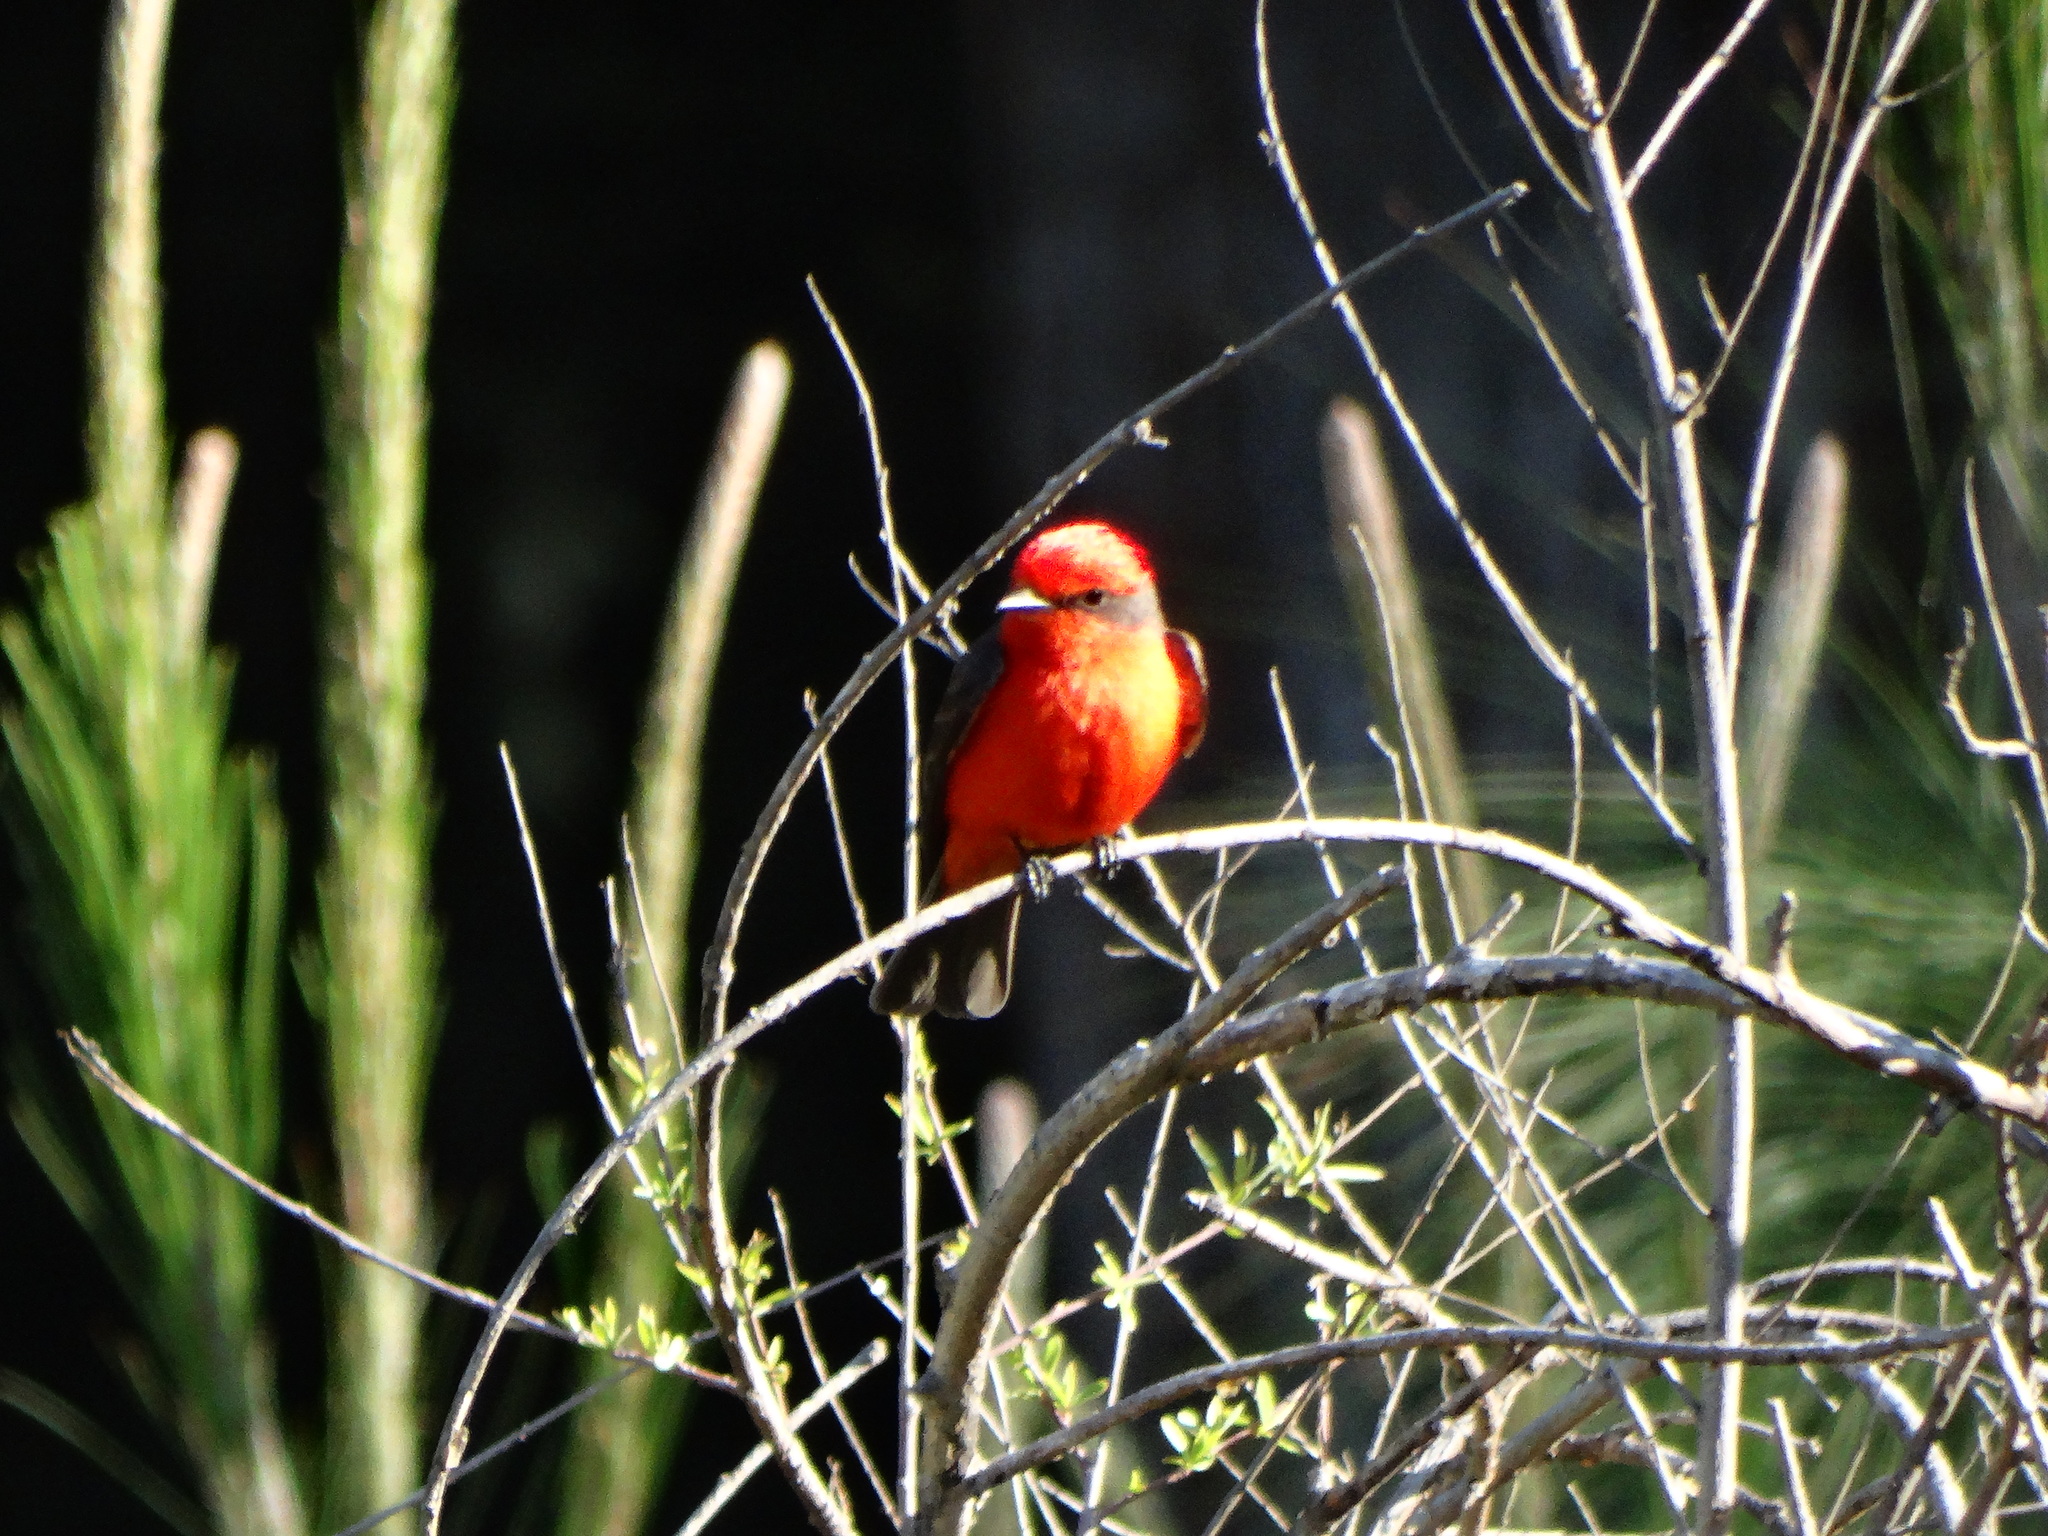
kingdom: Animalia
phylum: Chordata
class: Aves
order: Passeriformes
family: Tyrannidae
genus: Pyrocephalus
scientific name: Pyrocephalus rubinus
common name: Vermilion flycatcher
